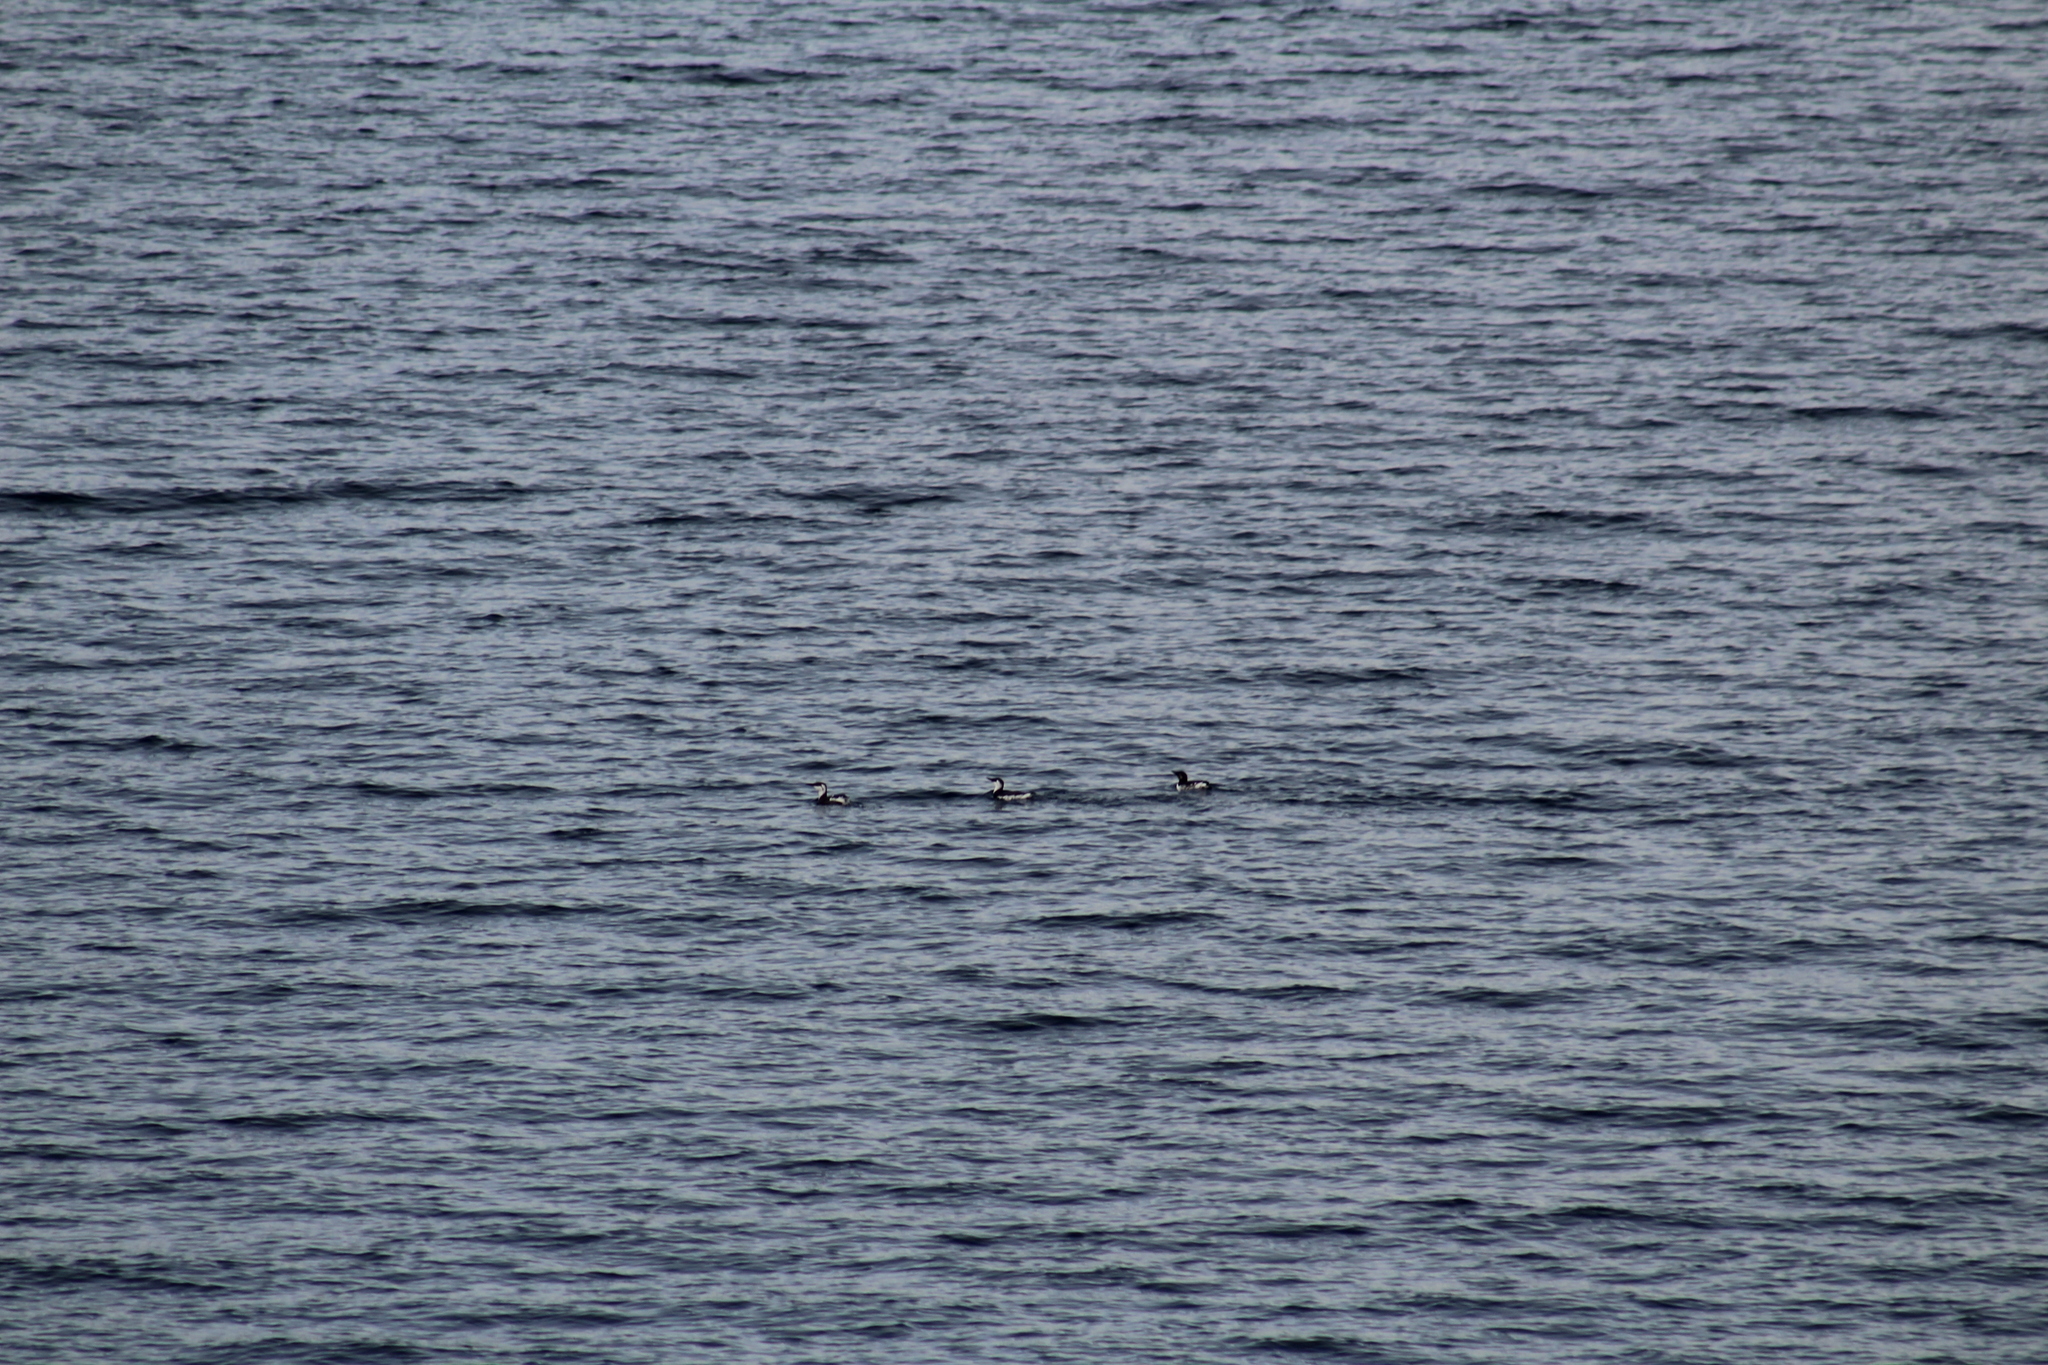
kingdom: Animalia
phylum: Chordata
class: Aves
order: Charadriiformes
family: Alcidae
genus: Uria
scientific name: Uria aalge
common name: Common murre
